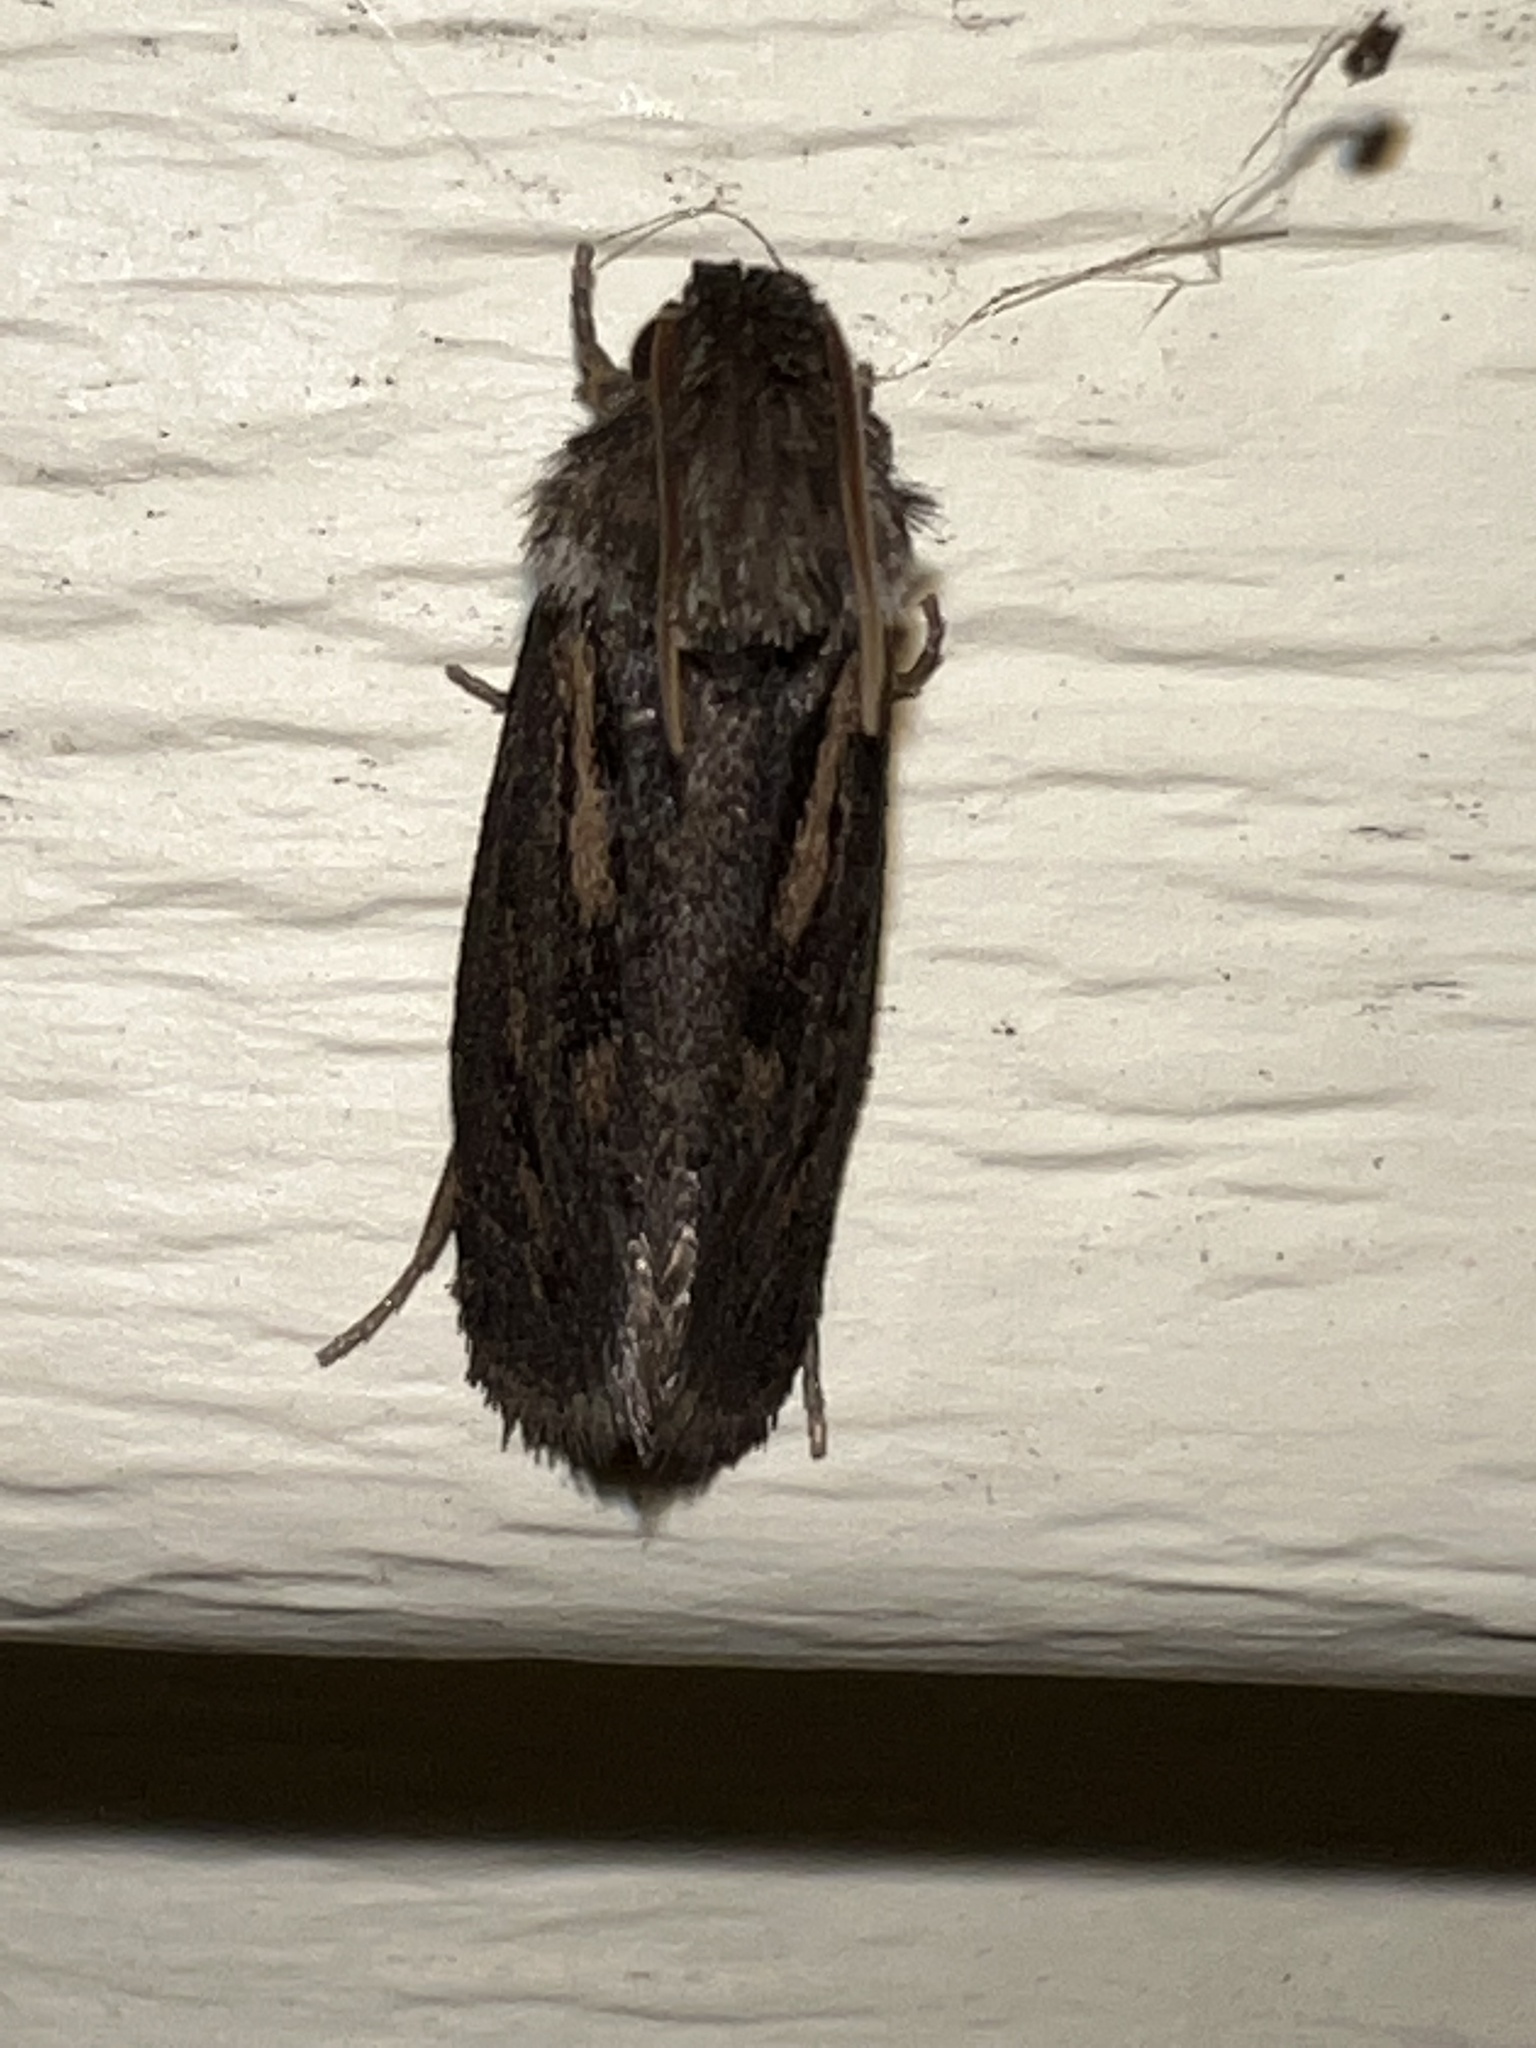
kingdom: Animalia
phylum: Arthropoda
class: Insecta
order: Lepidoptera
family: Tineidae
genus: Acrolophus
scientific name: Acrolophus popeanella
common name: Clemens' grass tubeworm moth
